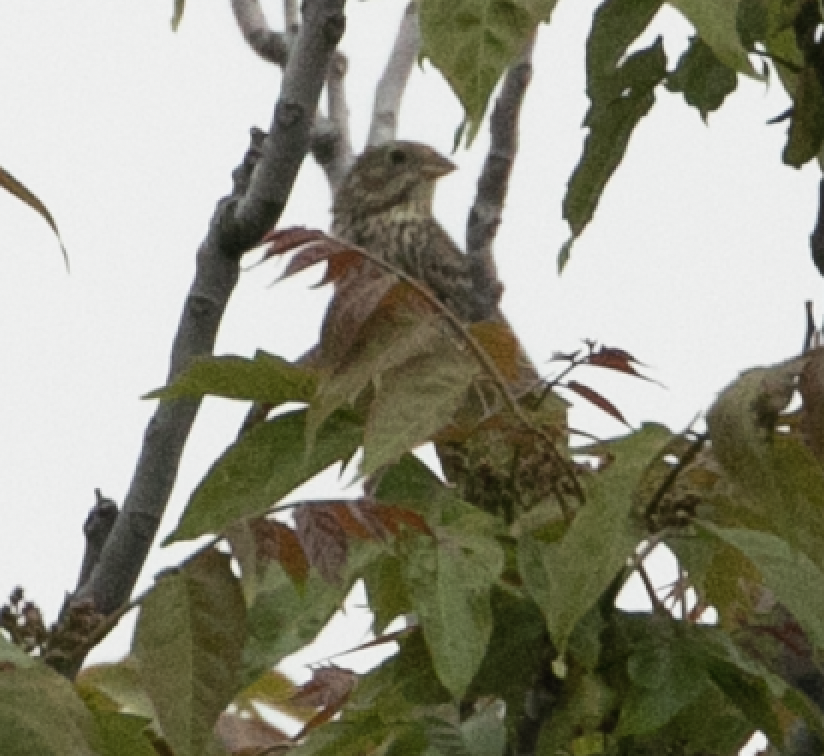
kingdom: Animalia
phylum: Chordata
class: Aves
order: Passeriformes
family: Emberizidae
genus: Emberiza
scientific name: Emberiza calandra
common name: Corn bunting
